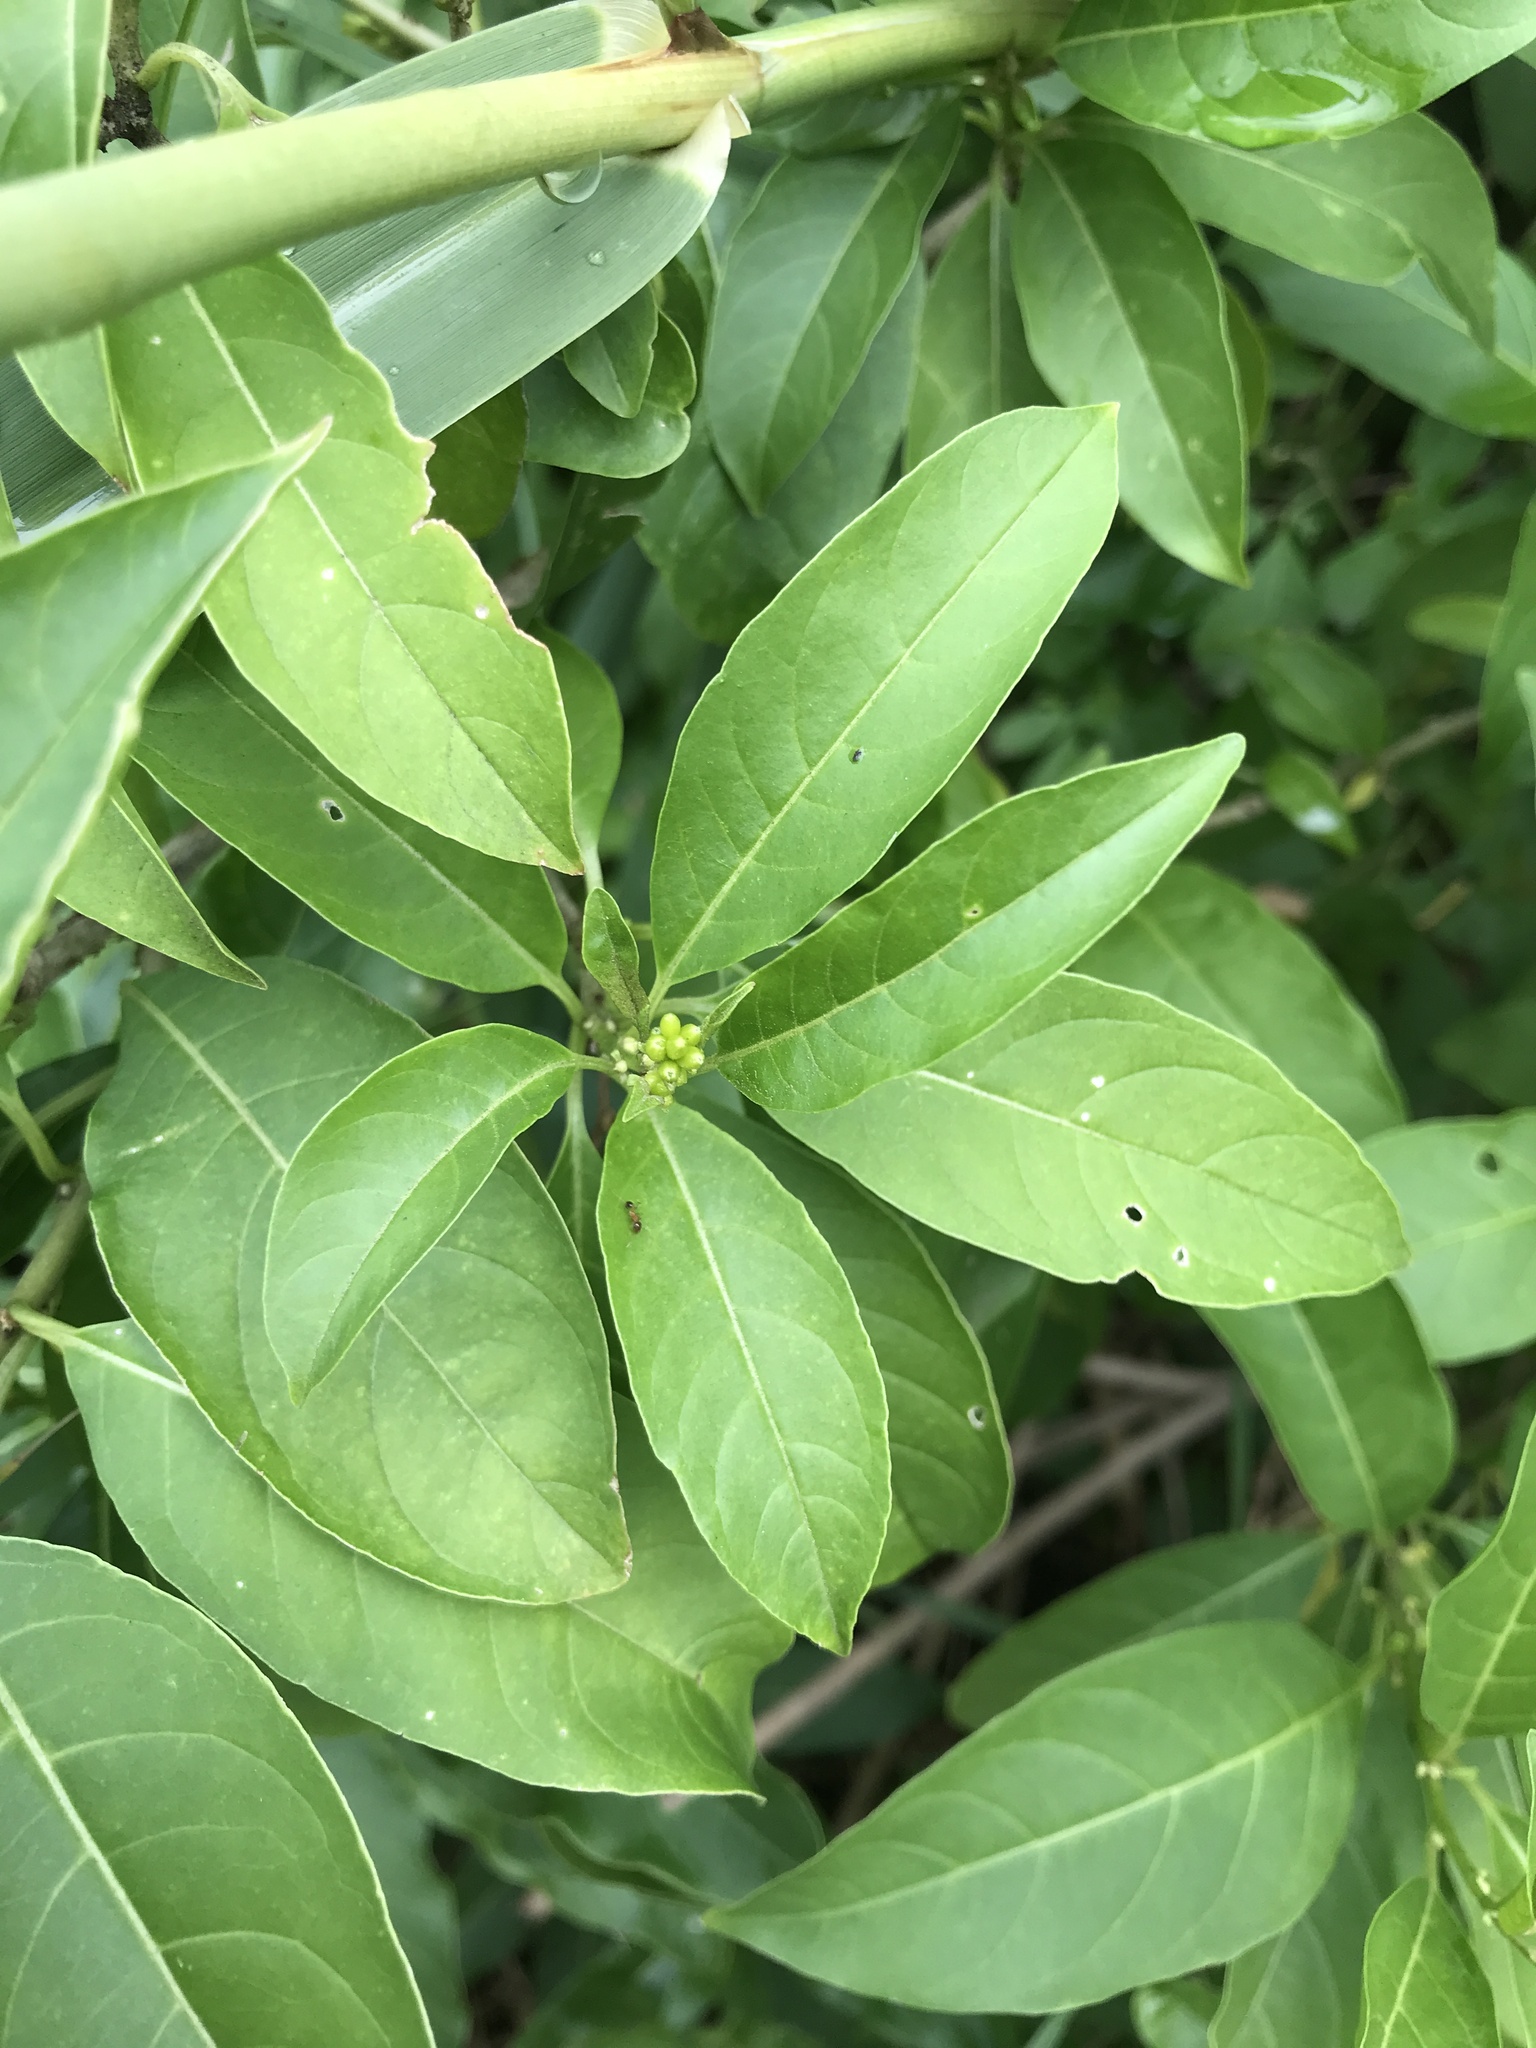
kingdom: Plantae
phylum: Tracheophyta
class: Magnoliopsida
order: Solanales
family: Solanaceae
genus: Cestrum
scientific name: Cestrum laevigatum
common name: Inkberry
